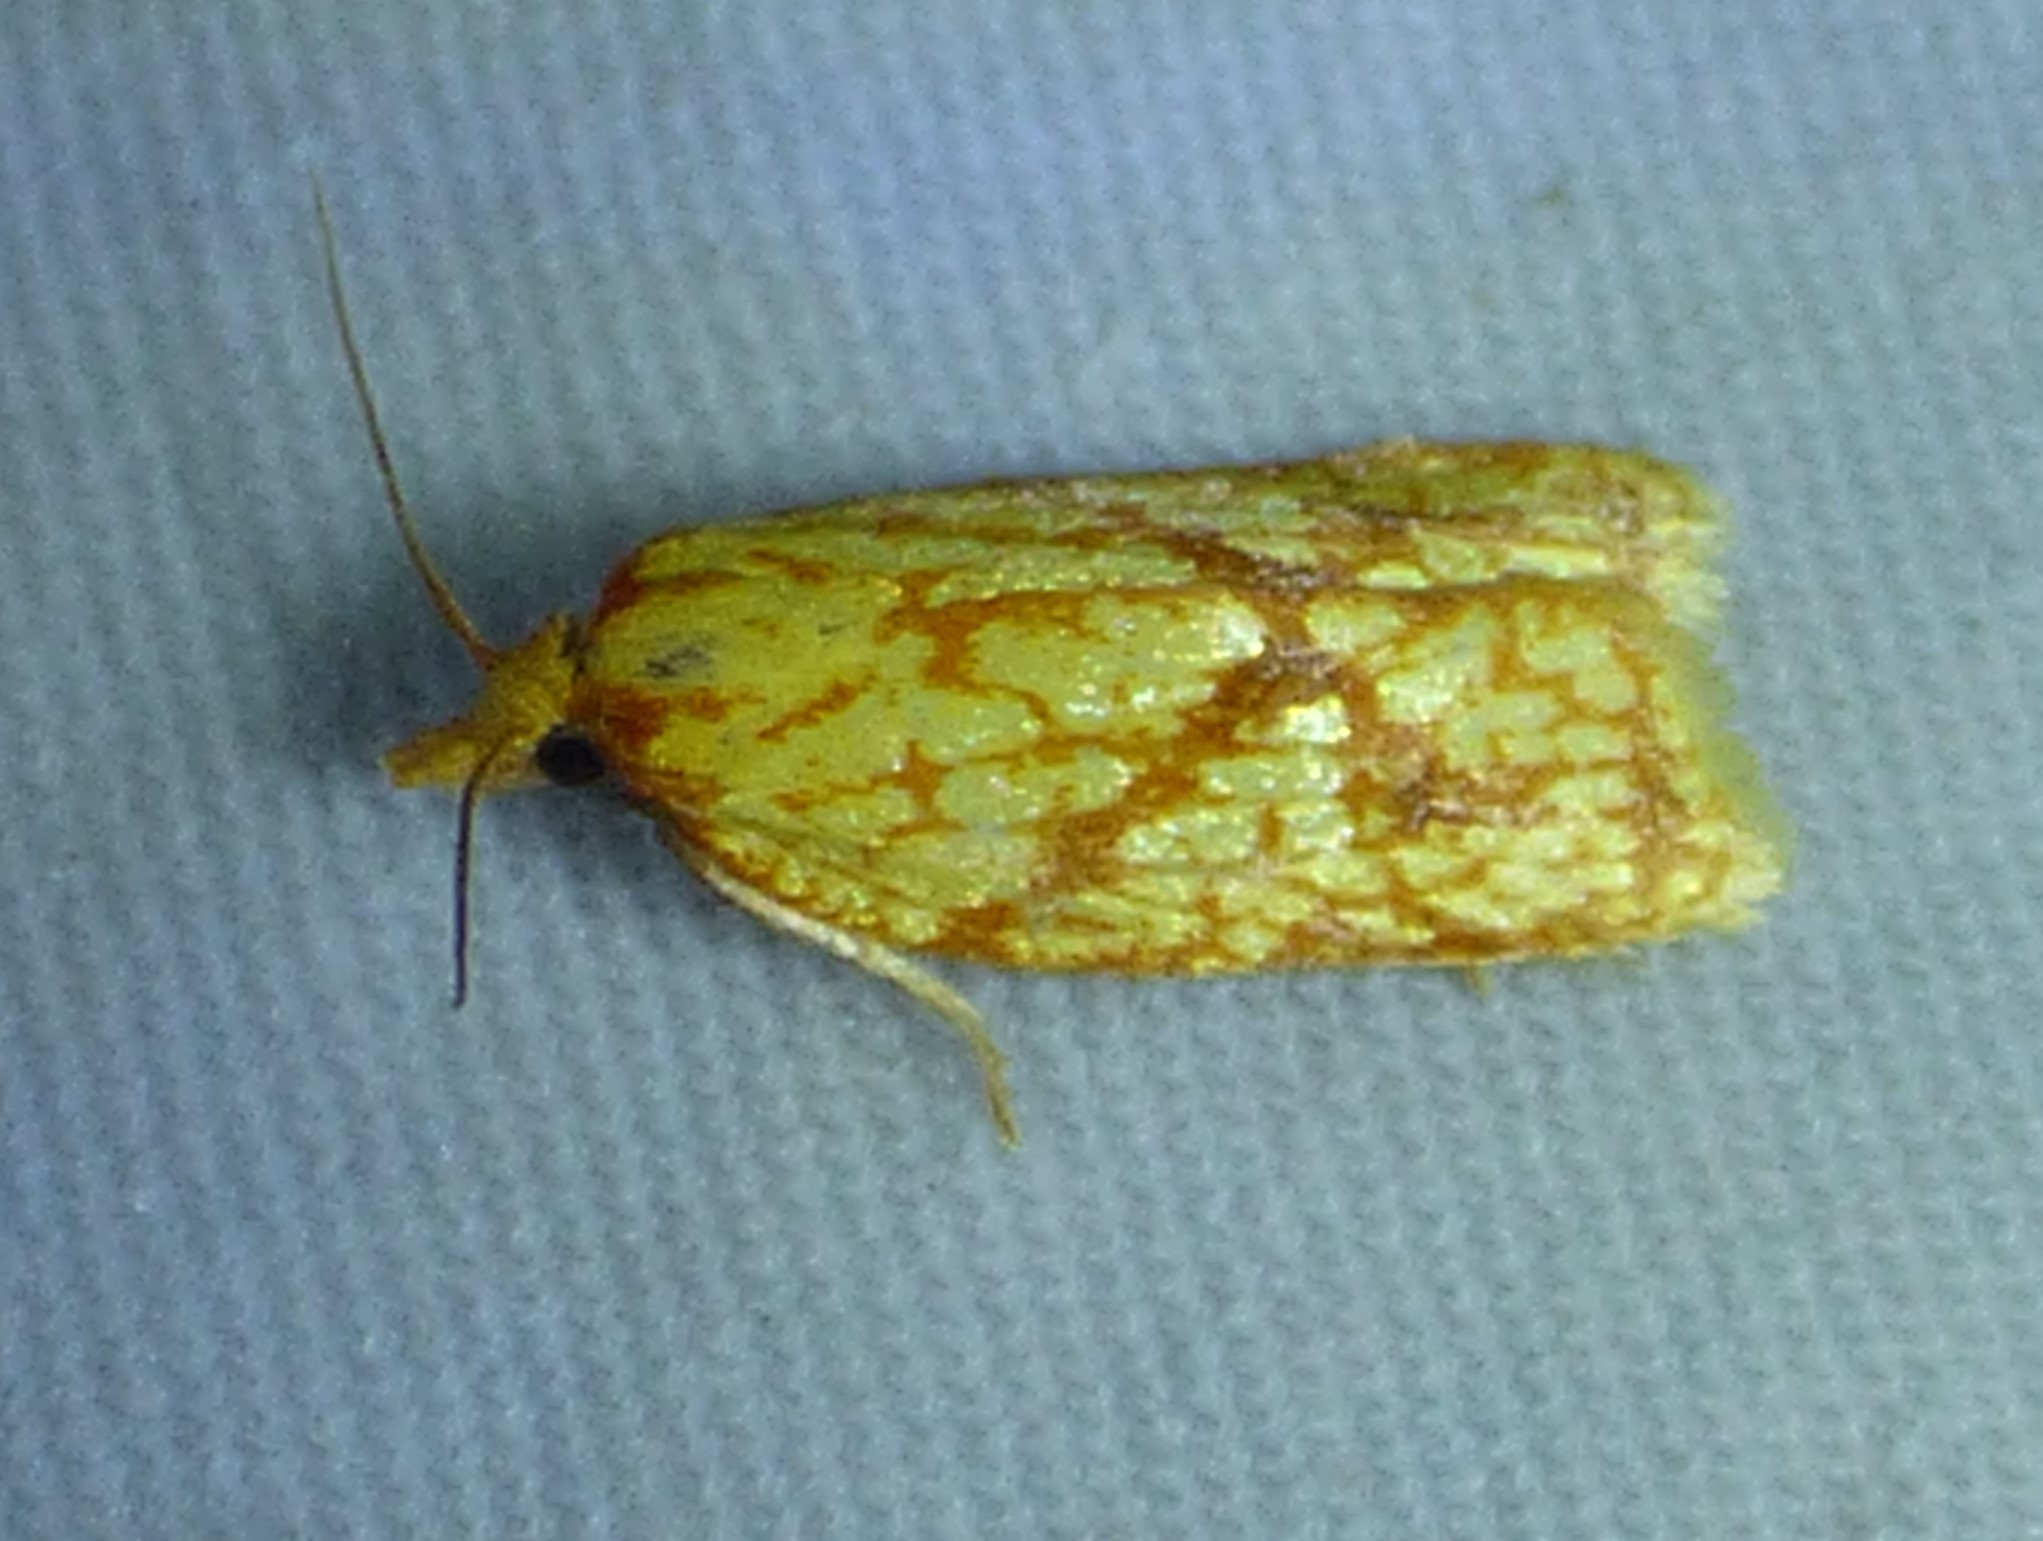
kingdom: Animalia
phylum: Arthropoda
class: Insecta
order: Lepidoptera
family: Tortricidae
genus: Sparganothis
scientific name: Sparganothis sulfureana
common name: Sparganothis fruitworm moth
